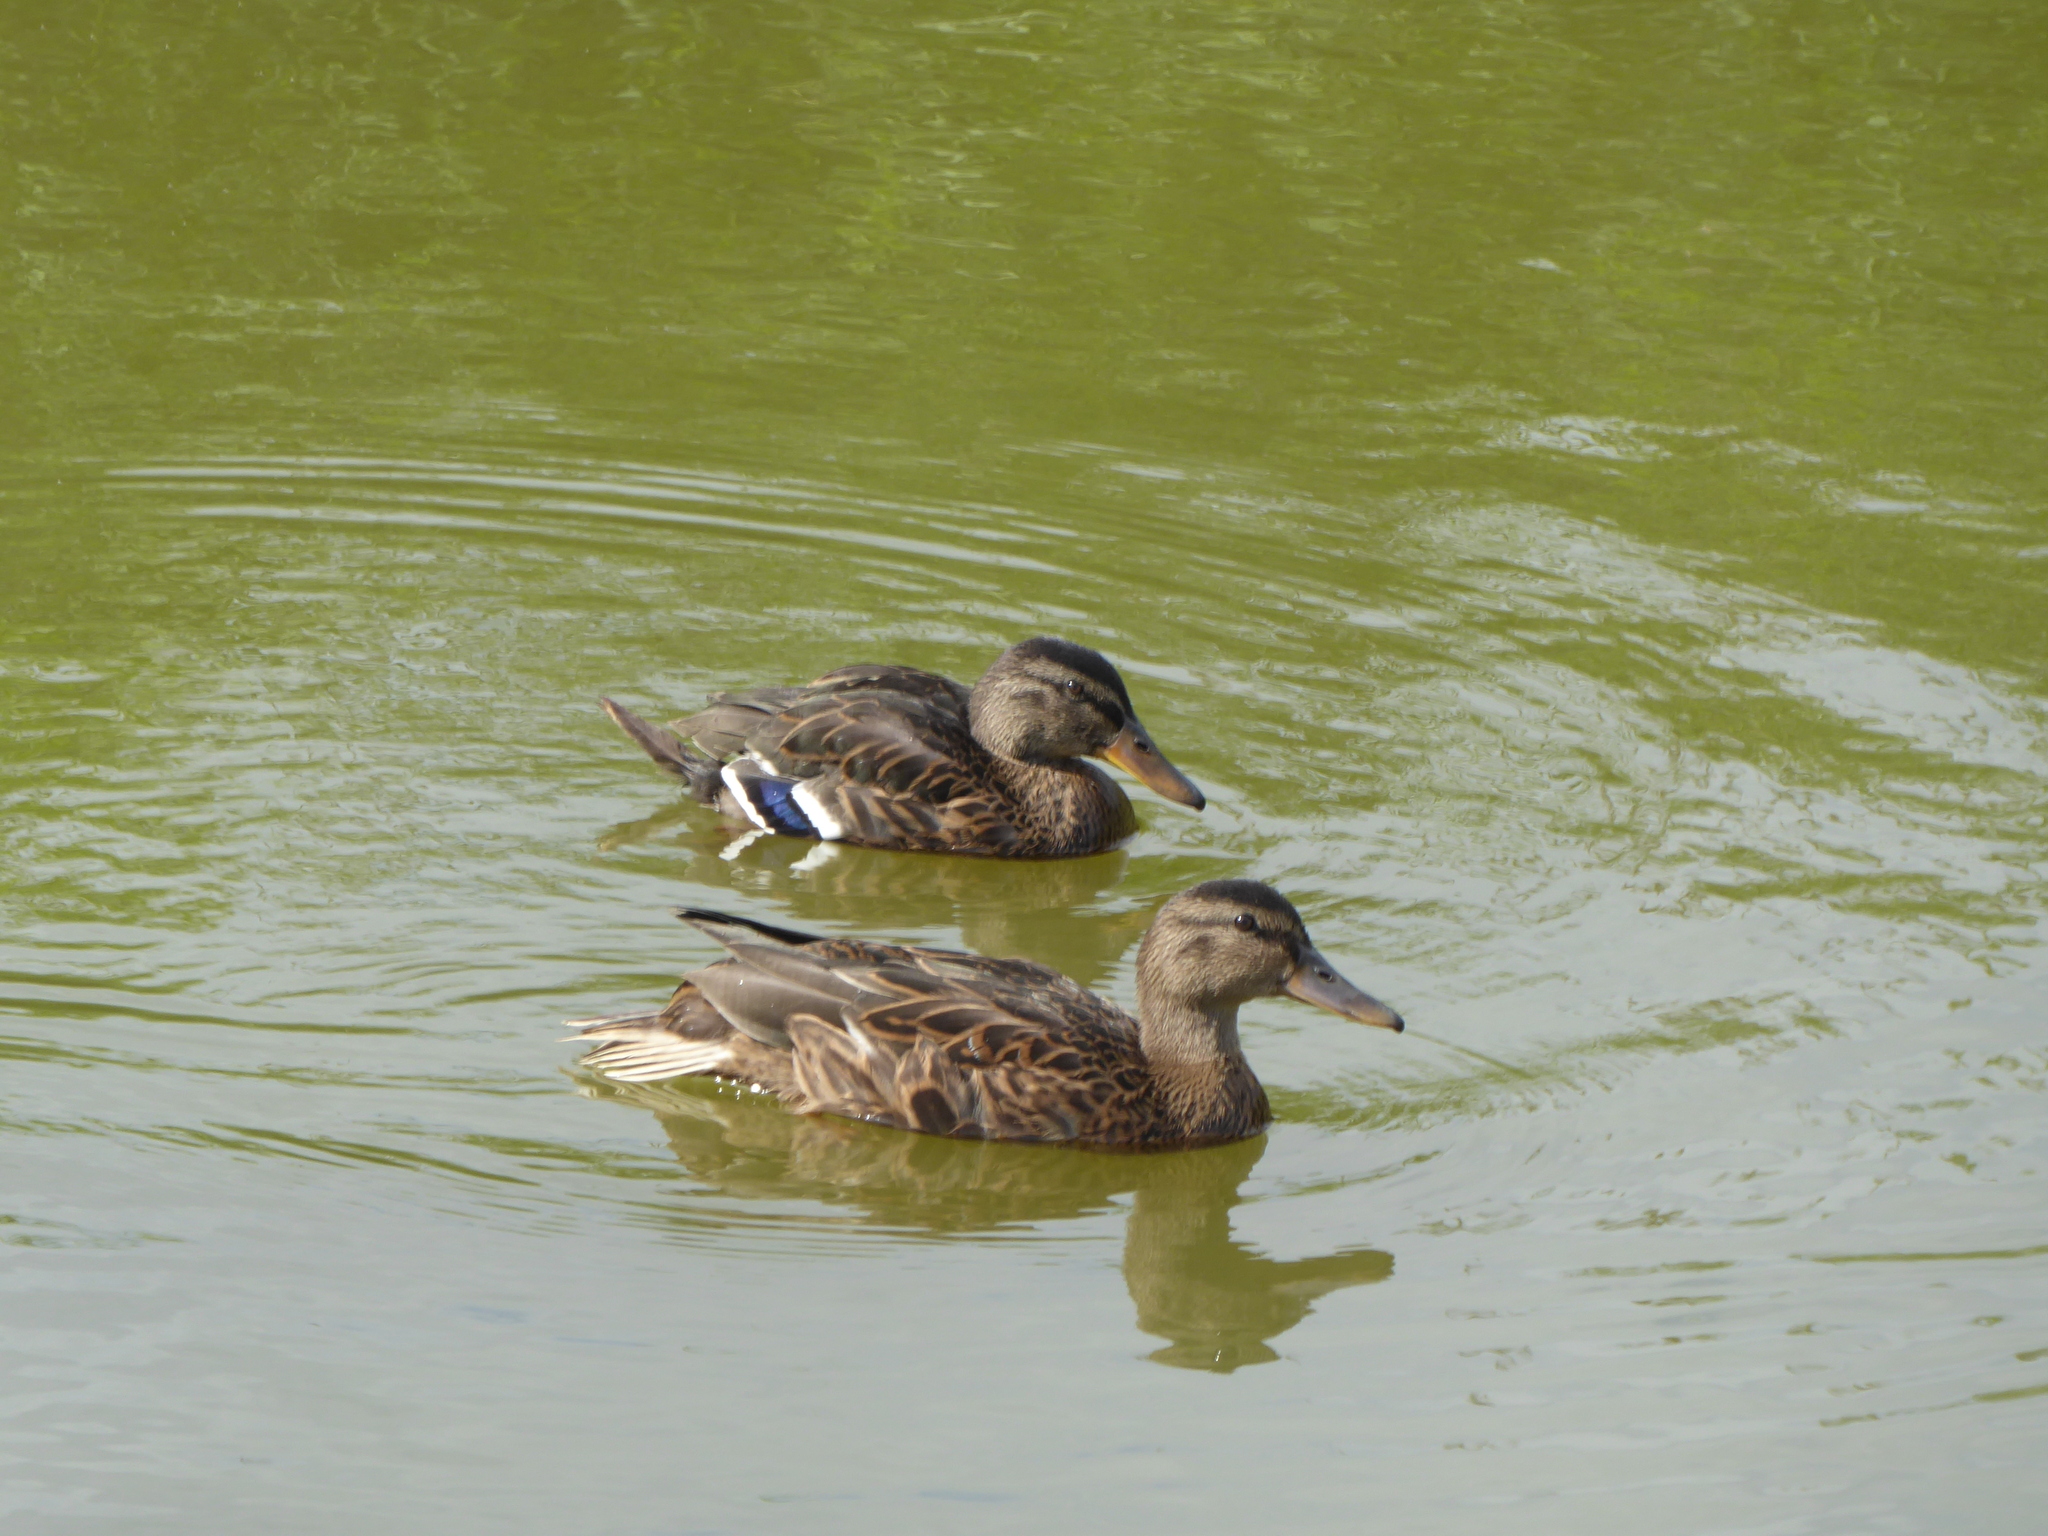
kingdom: Animalia
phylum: Chordata
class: Aves
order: Anseriformes
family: Anatidae
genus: Anas
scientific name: Anas platyrhynchos
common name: Mallard
